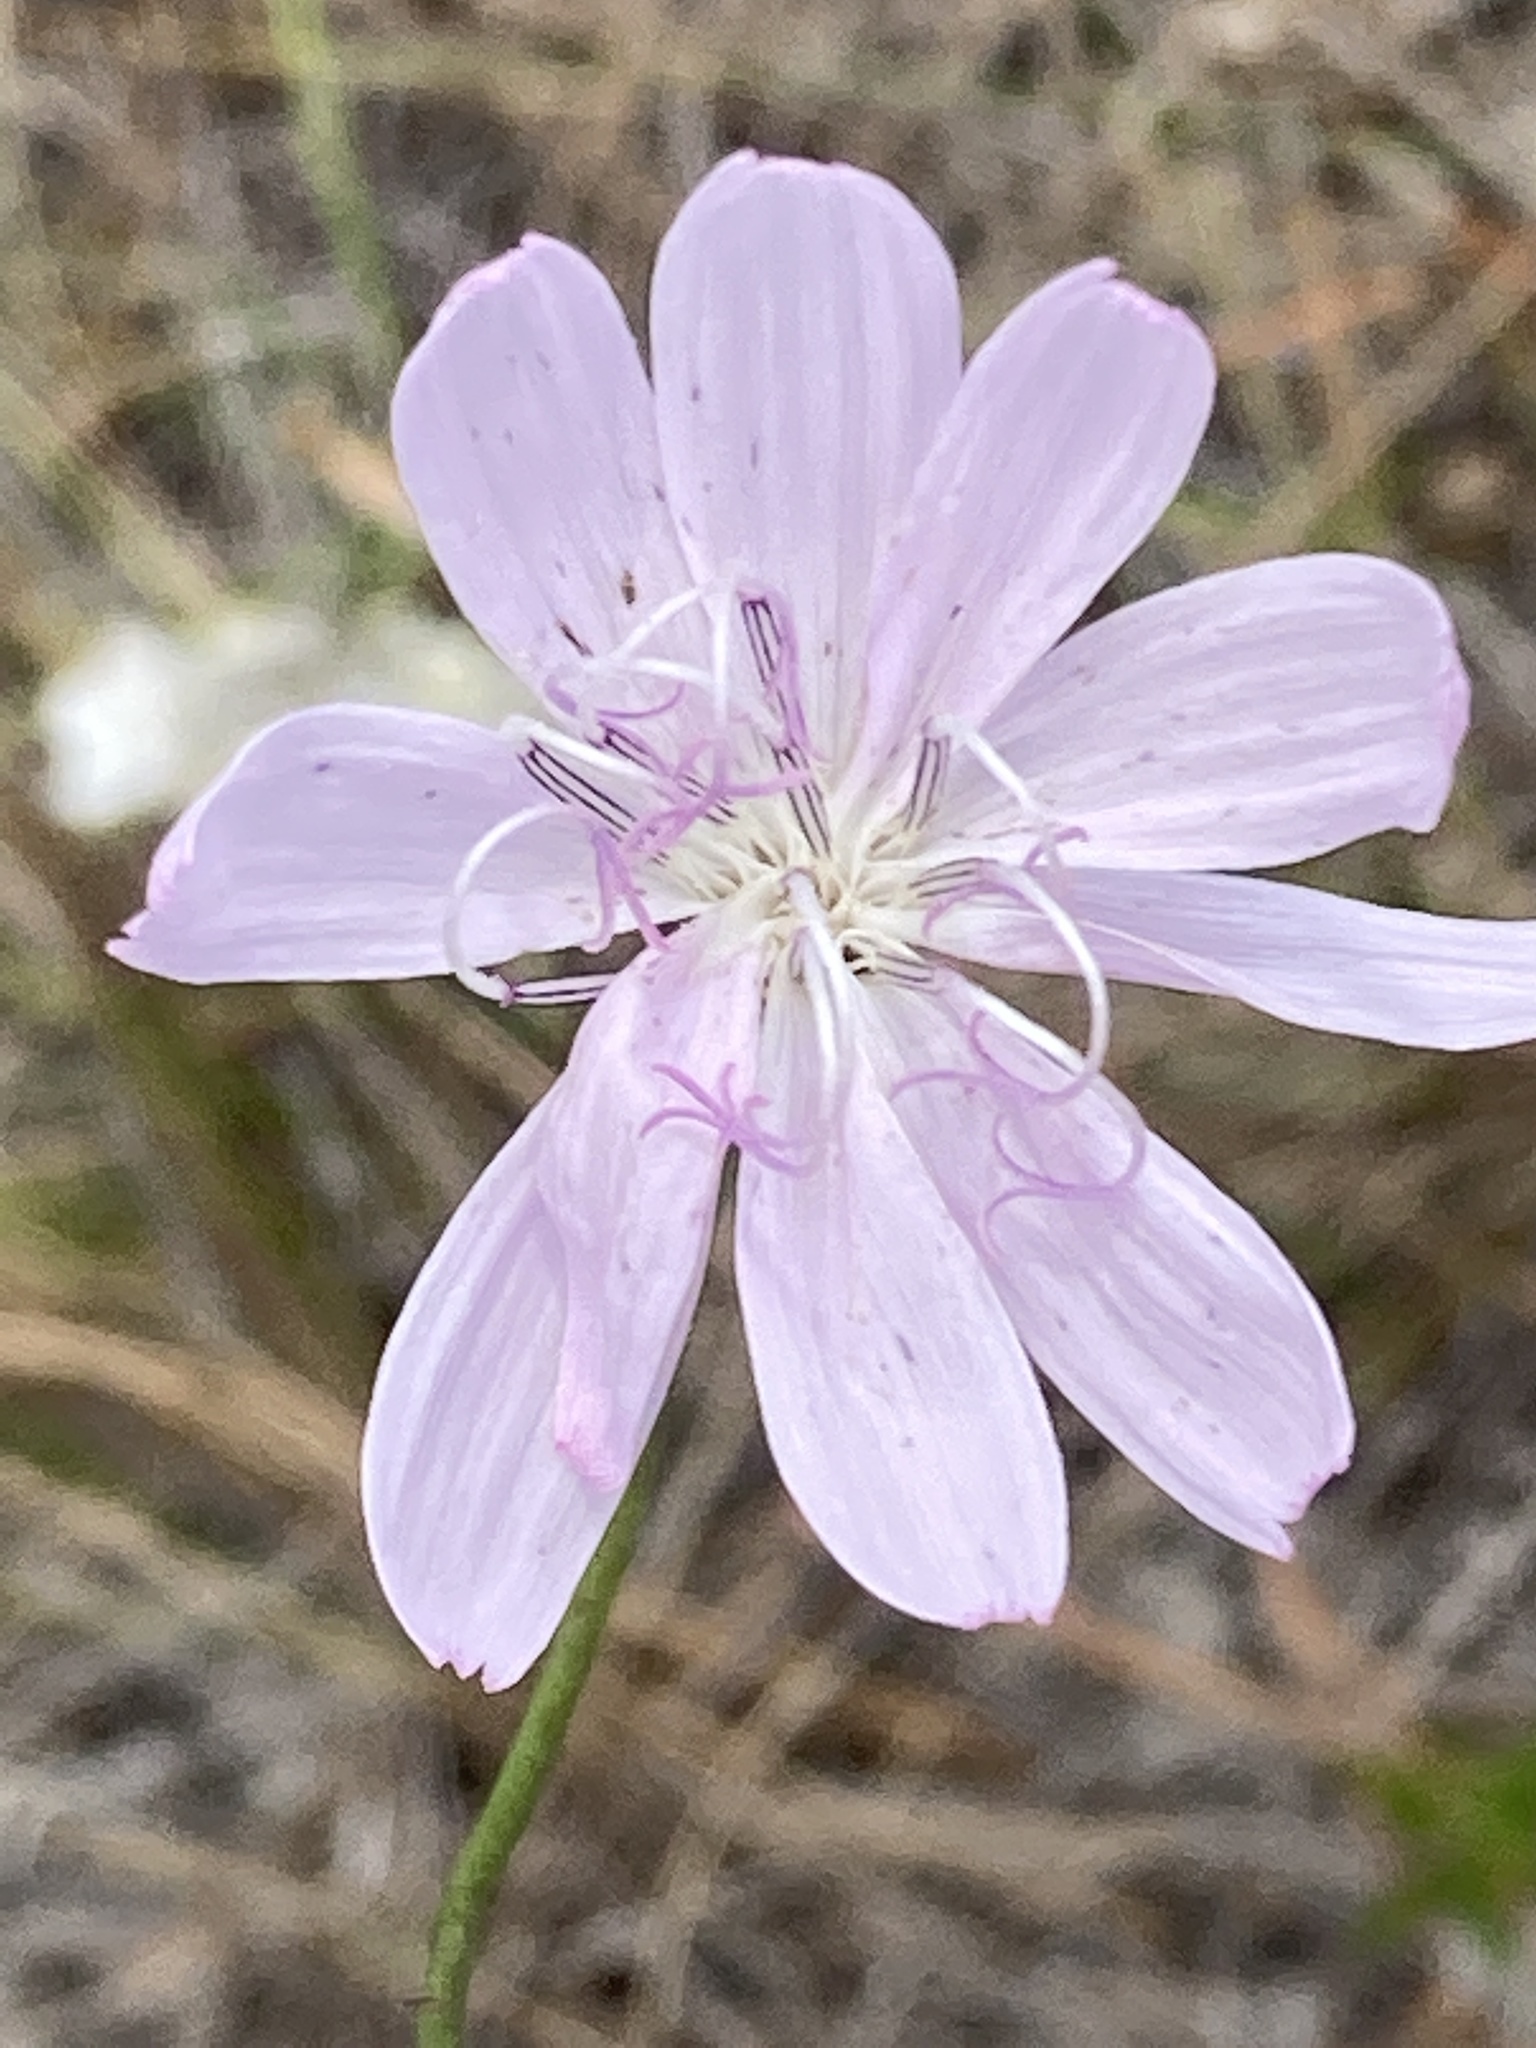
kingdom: Plantae
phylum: Tracheophyta
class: Magnoliopsida
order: Asterales
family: Asteraceae
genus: Lygodesmia
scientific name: Lygodesmia aphylla
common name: Rose-rush
